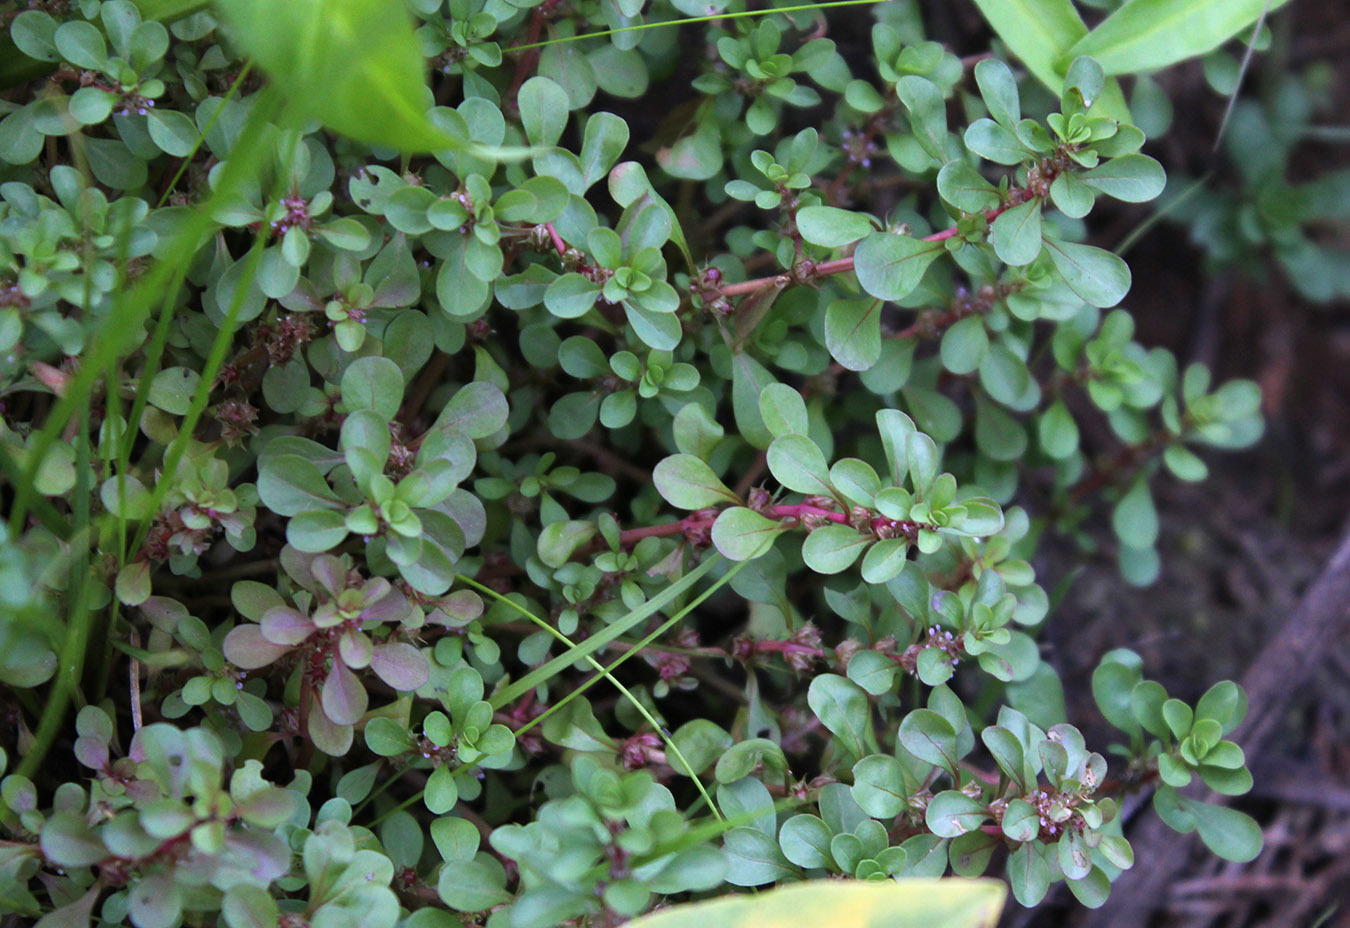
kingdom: Plantae
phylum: Tracheophyta
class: Magnoliopsida
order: Myrtales
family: Lythraceae
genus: Lythrum
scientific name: Lythrum portula
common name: Water purslane
